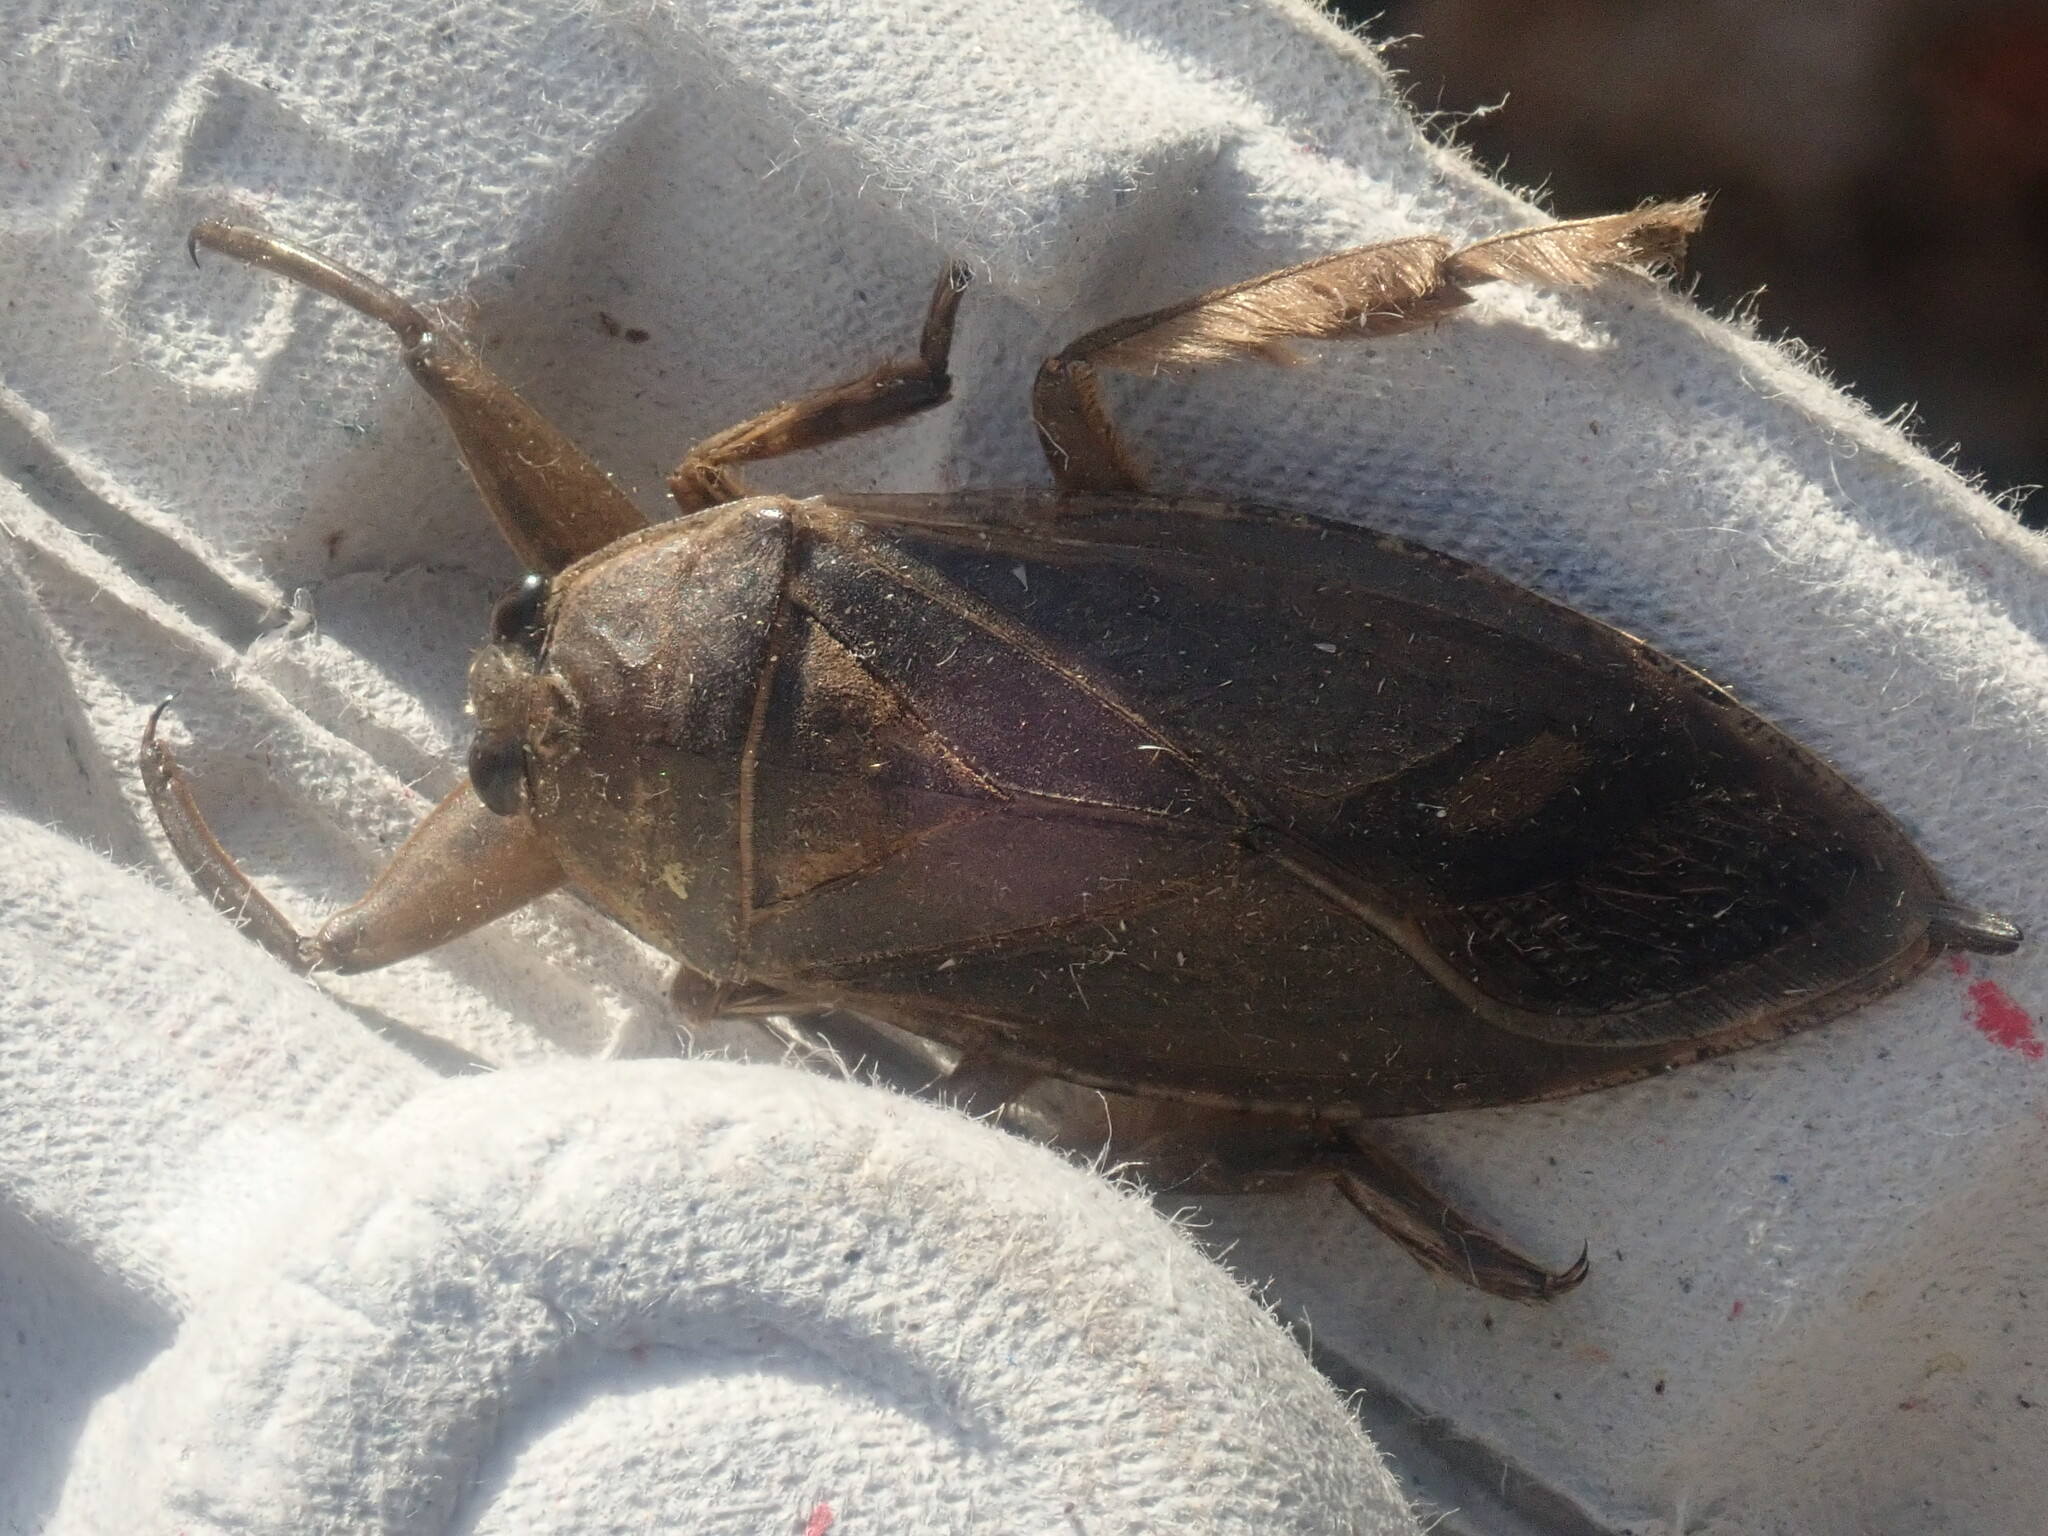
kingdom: Animalia
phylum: Arthropoda
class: Insecta
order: Hemiptera
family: Belostomatidae
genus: Lethocerus
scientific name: Lethocerus americanus
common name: Giant water bug
